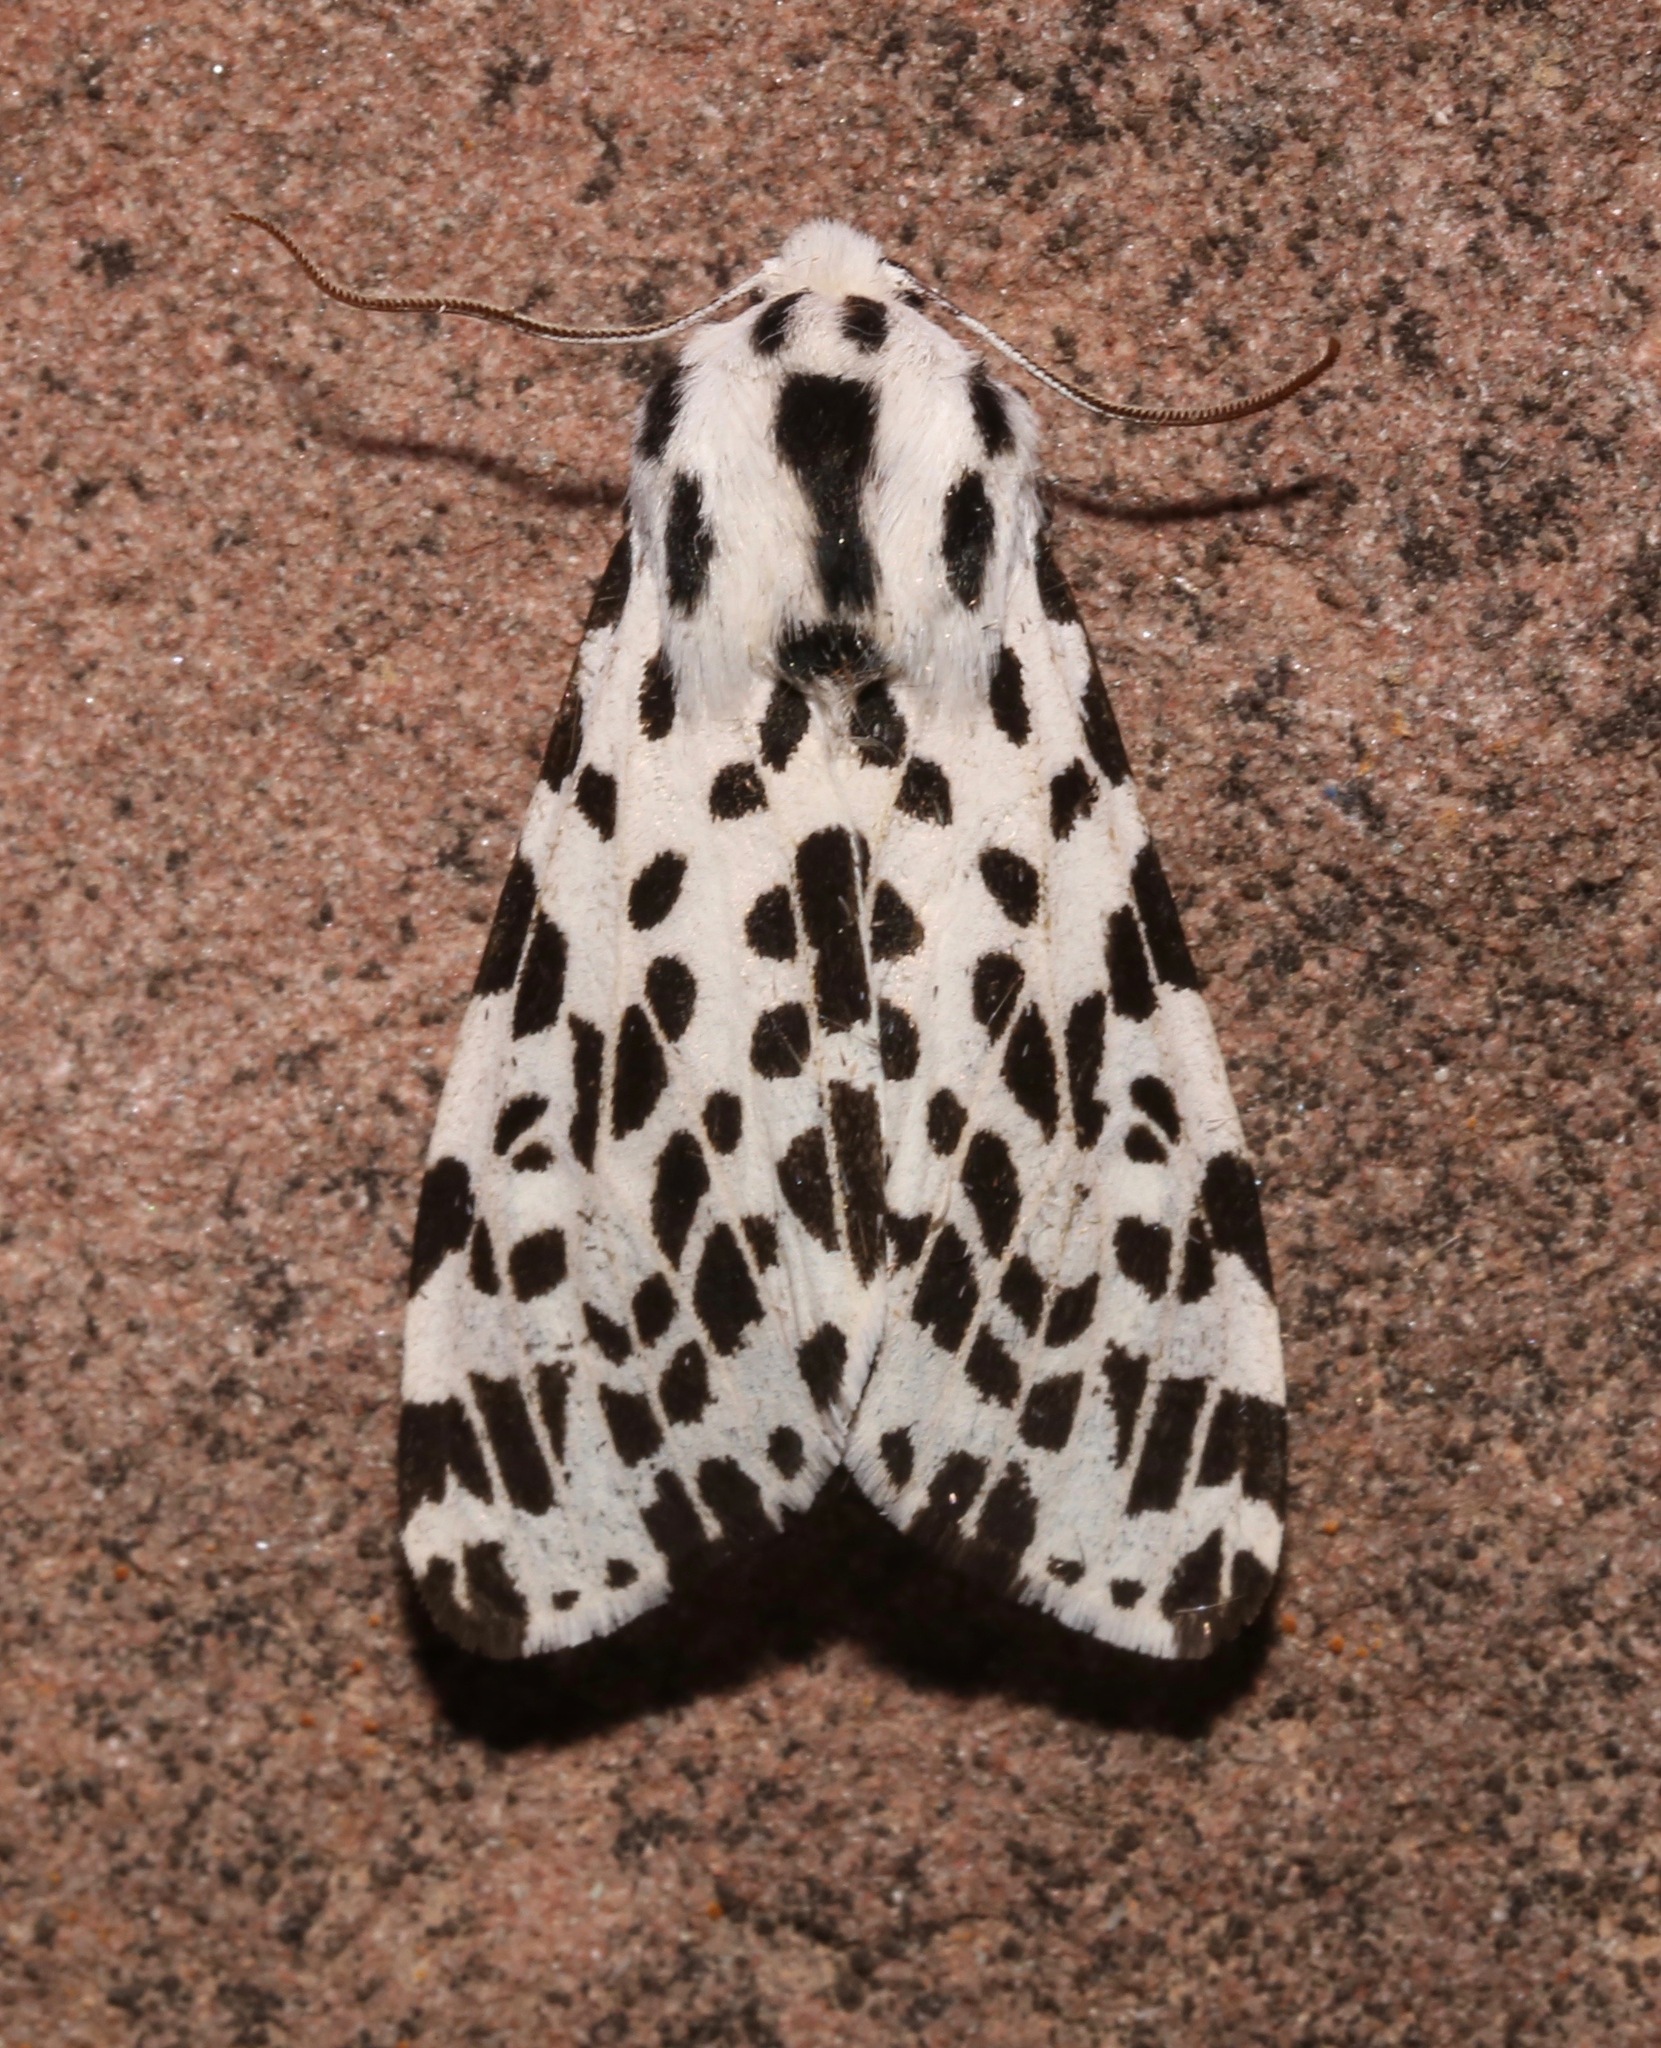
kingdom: Animalia
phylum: Arthropoda
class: Insecta
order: Lepidoptera
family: Erebidae
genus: Hypercompe
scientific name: Hypercompe permaculata
